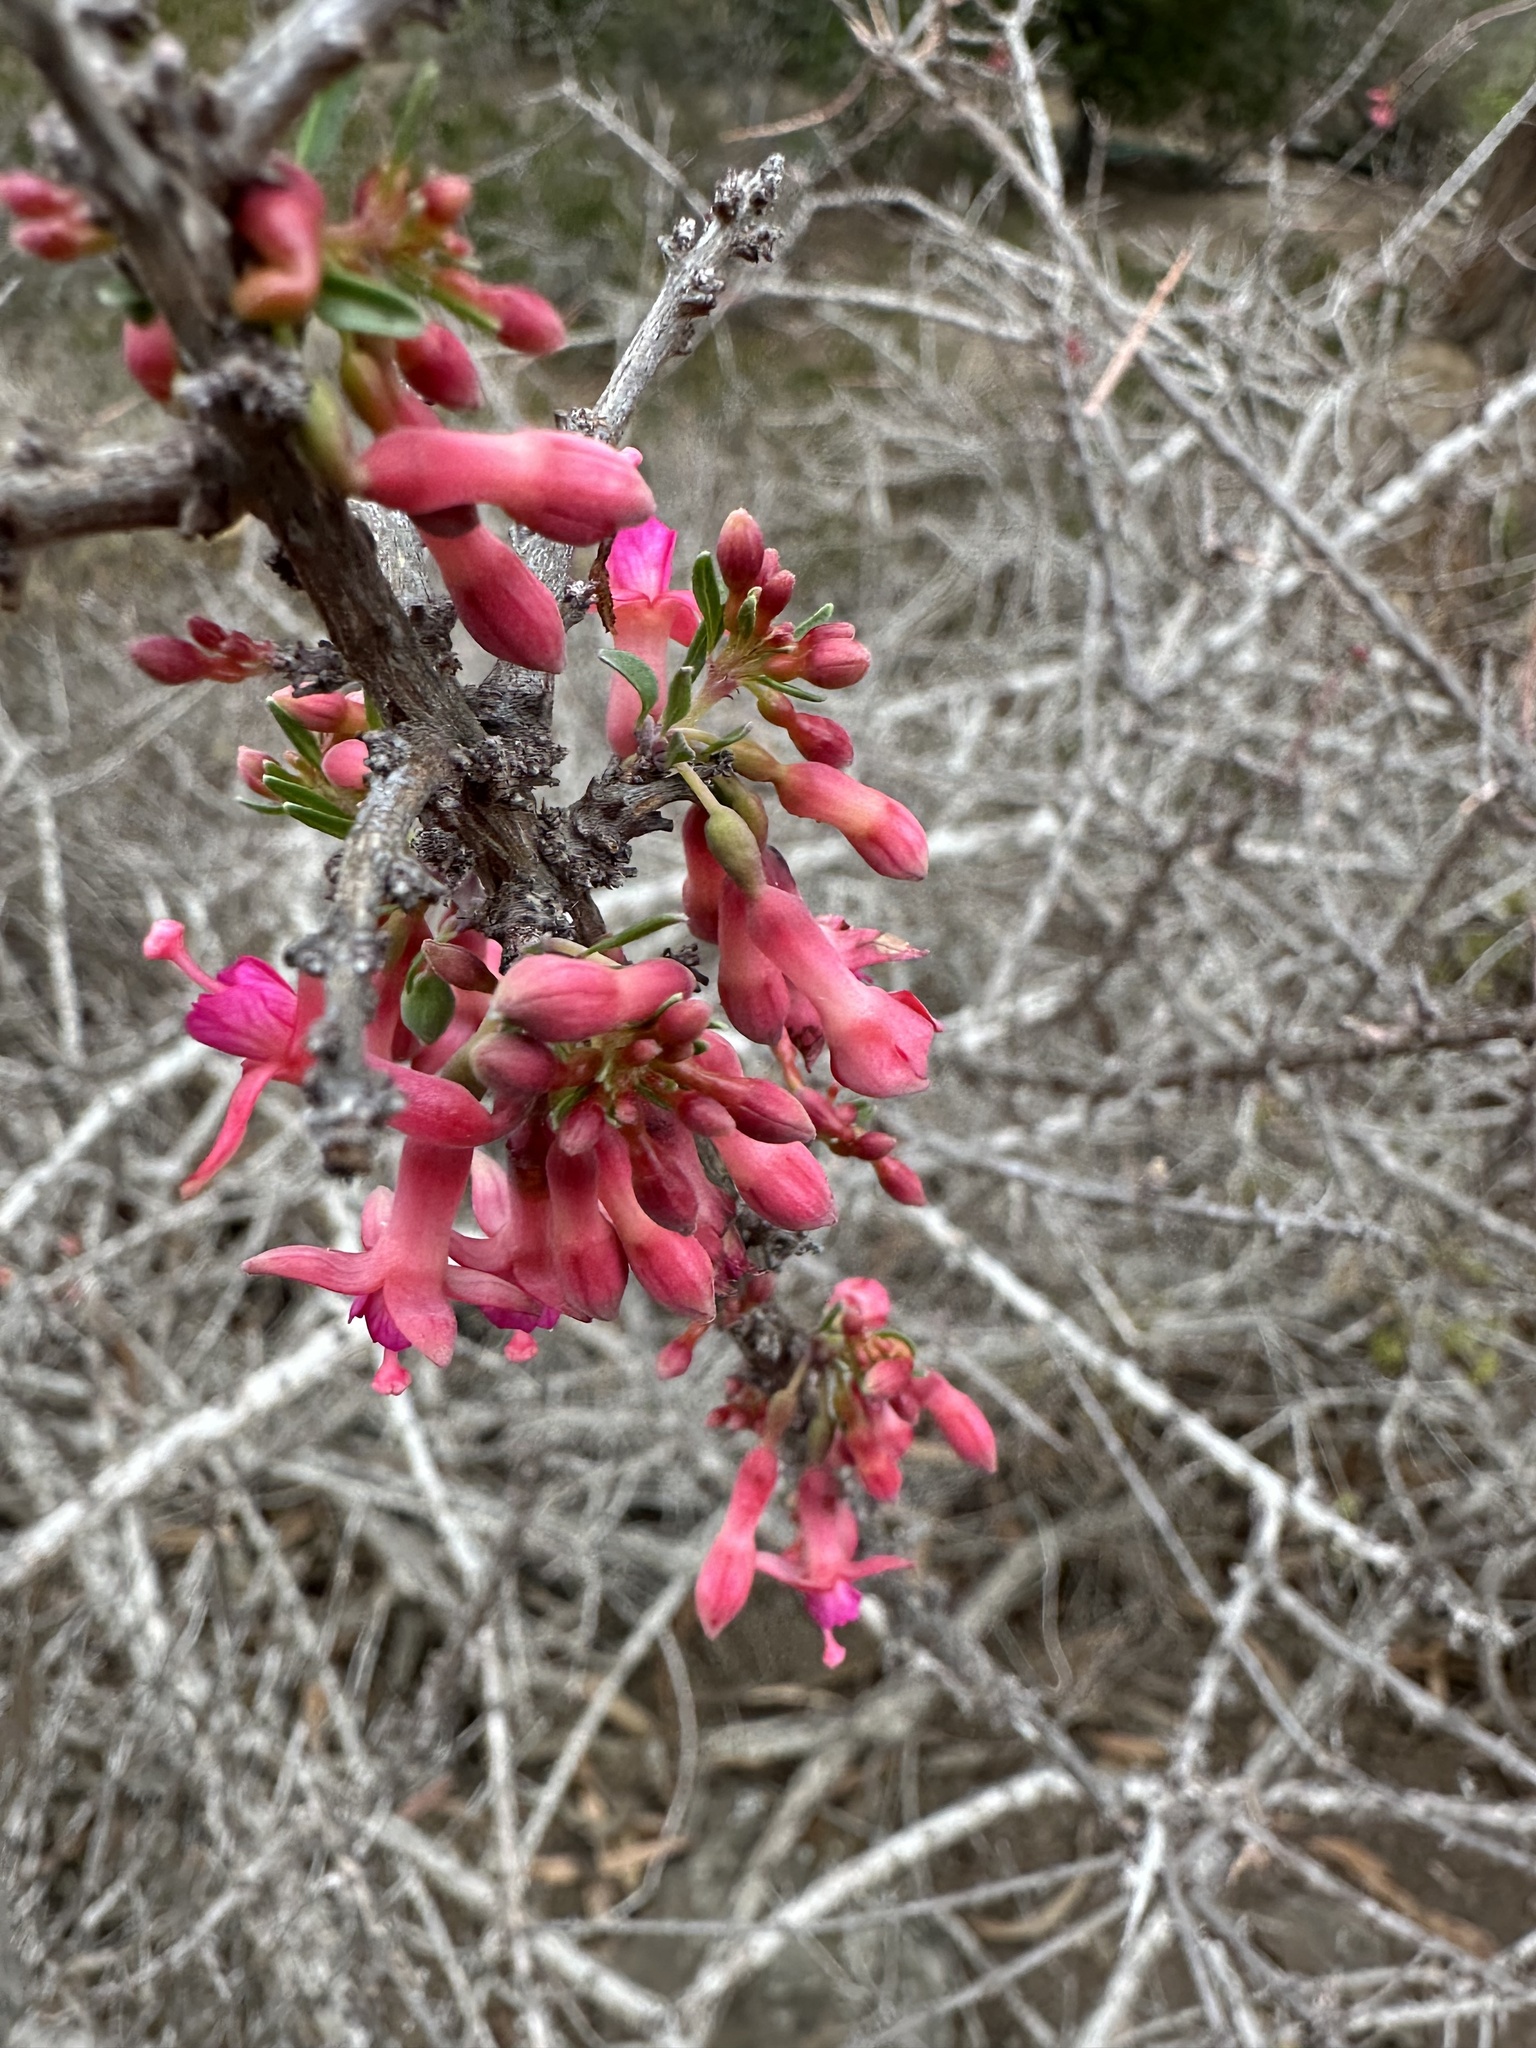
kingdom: Plantae
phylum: Tracheophyta
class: Magnoliopsida
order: Myrtales
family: Onagraceae
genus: Fuchsia
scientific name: Fuchsia lycioides
